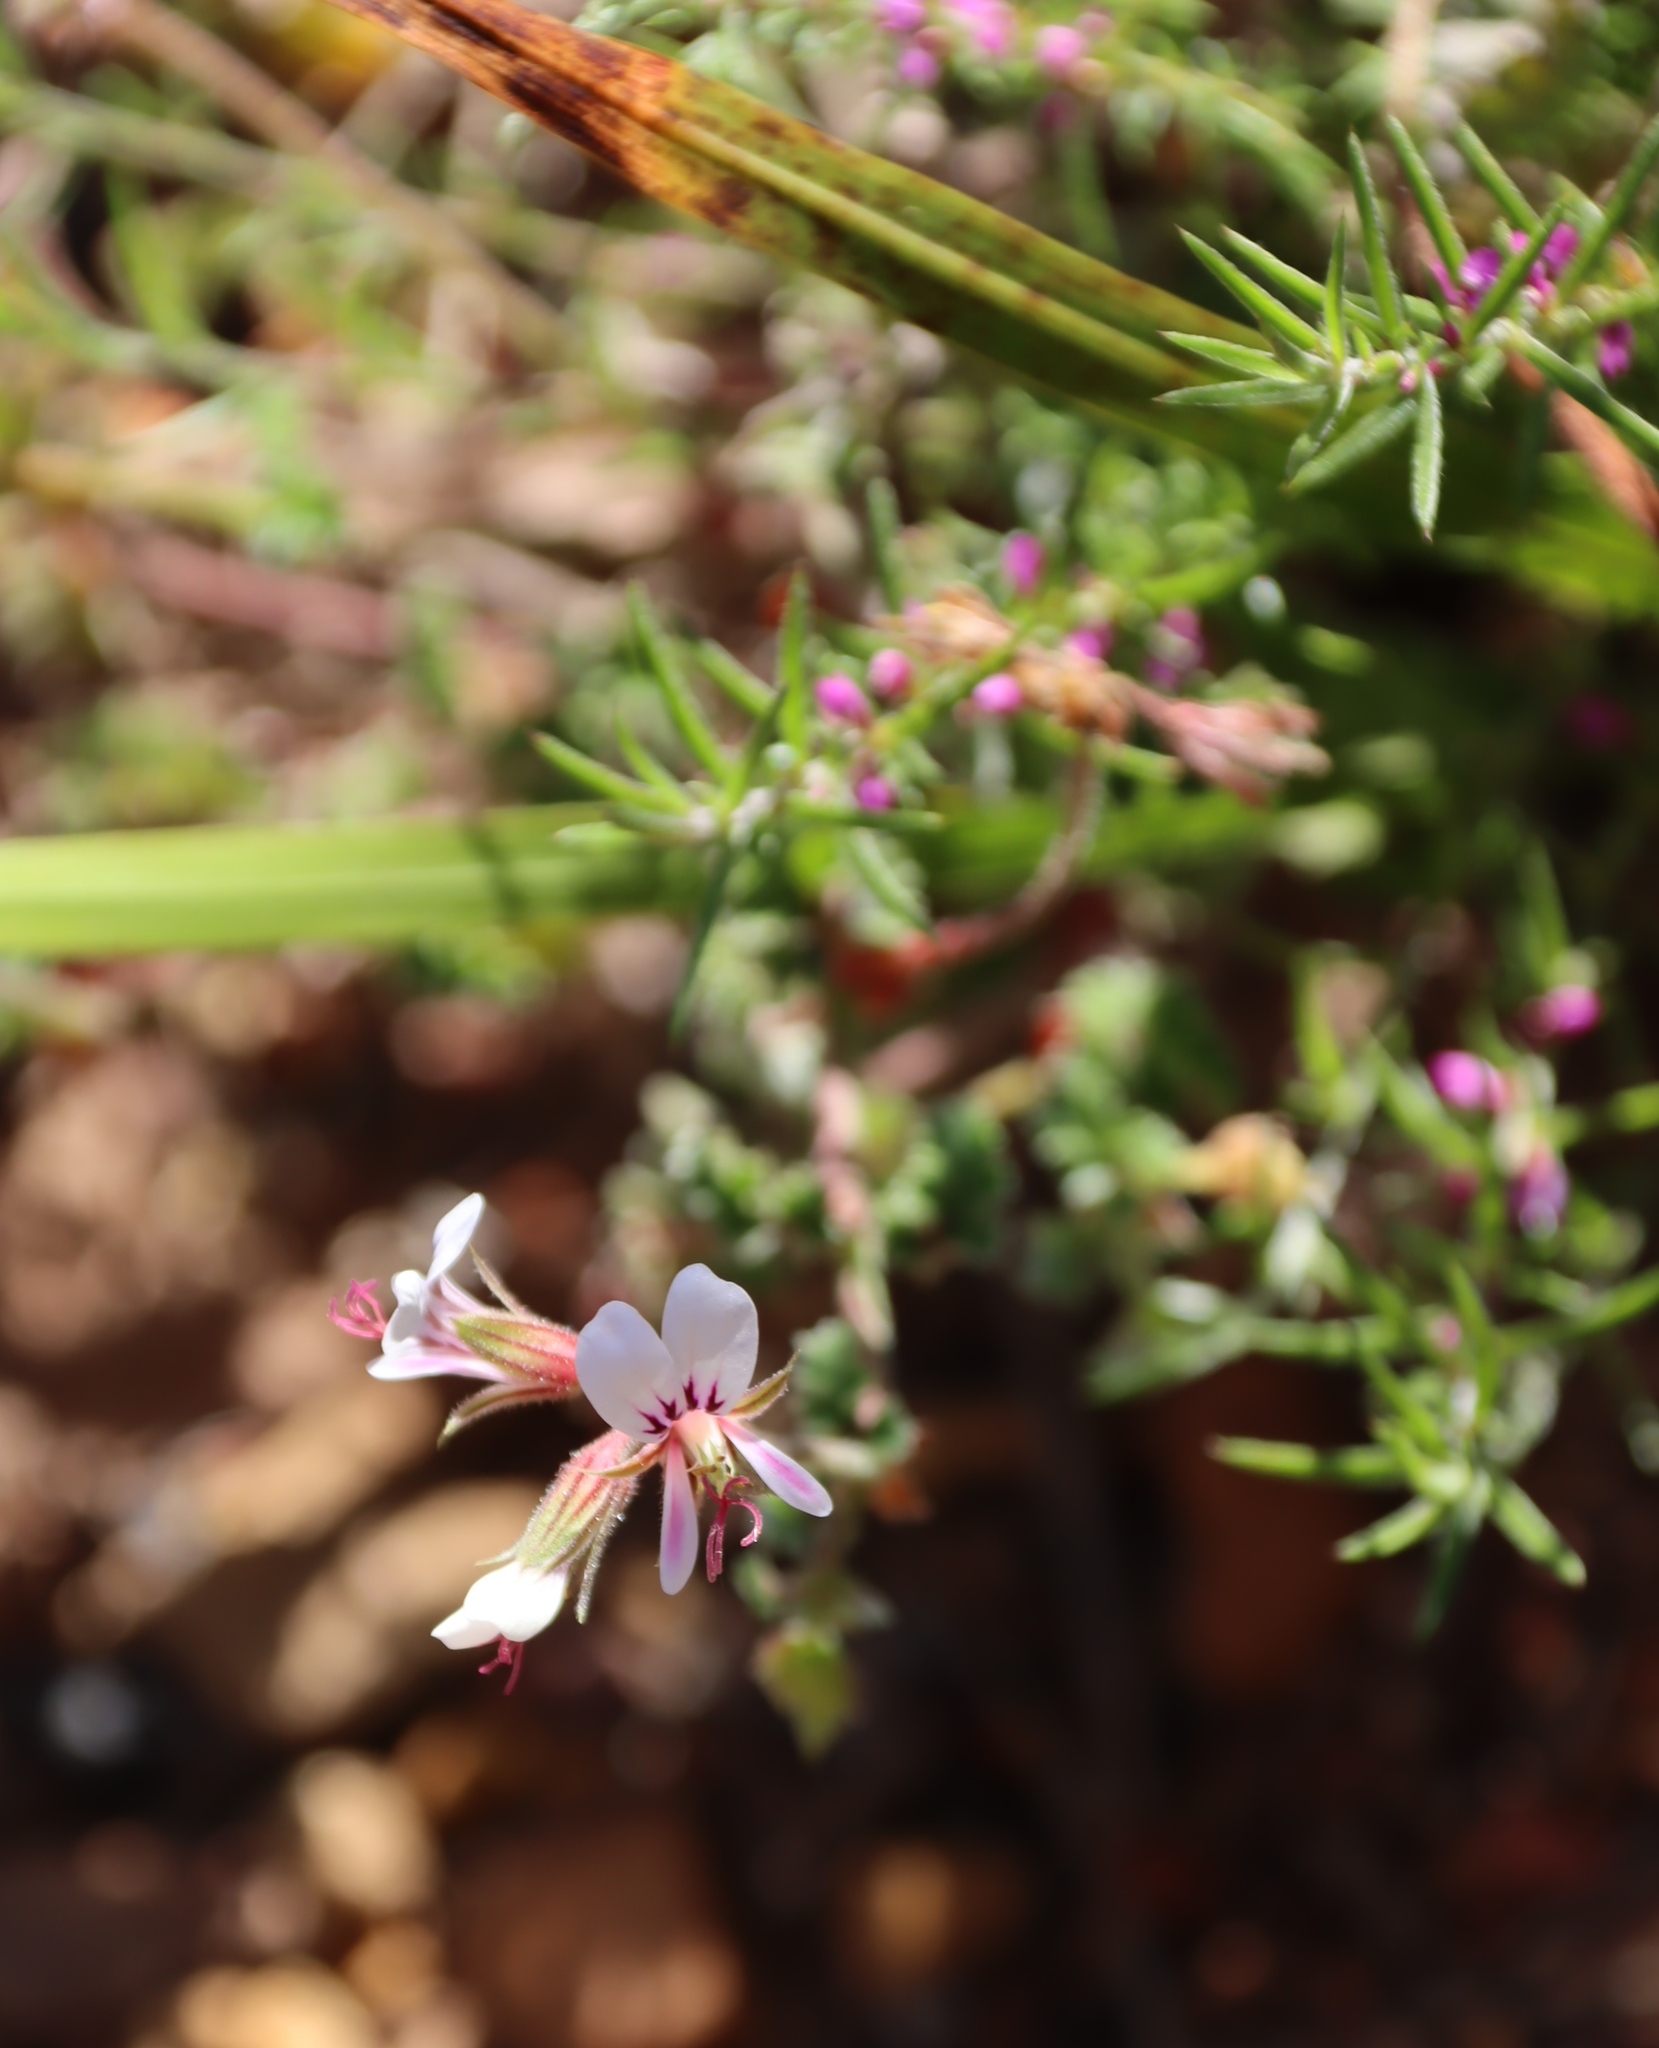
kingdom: Plantae
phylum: Tracheophyta
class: Magnoliopsida
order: Geraniales
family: Geraniaceae
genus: Pelargonium
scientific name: Pelargonium candicans
